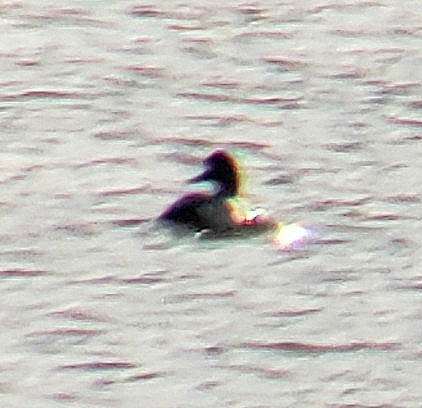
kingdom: Animalia
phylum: Chordata
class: Aves
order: Anseriformes
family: Anatidae
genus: Mergus
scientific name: Mergus merganser
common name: Common merganser
